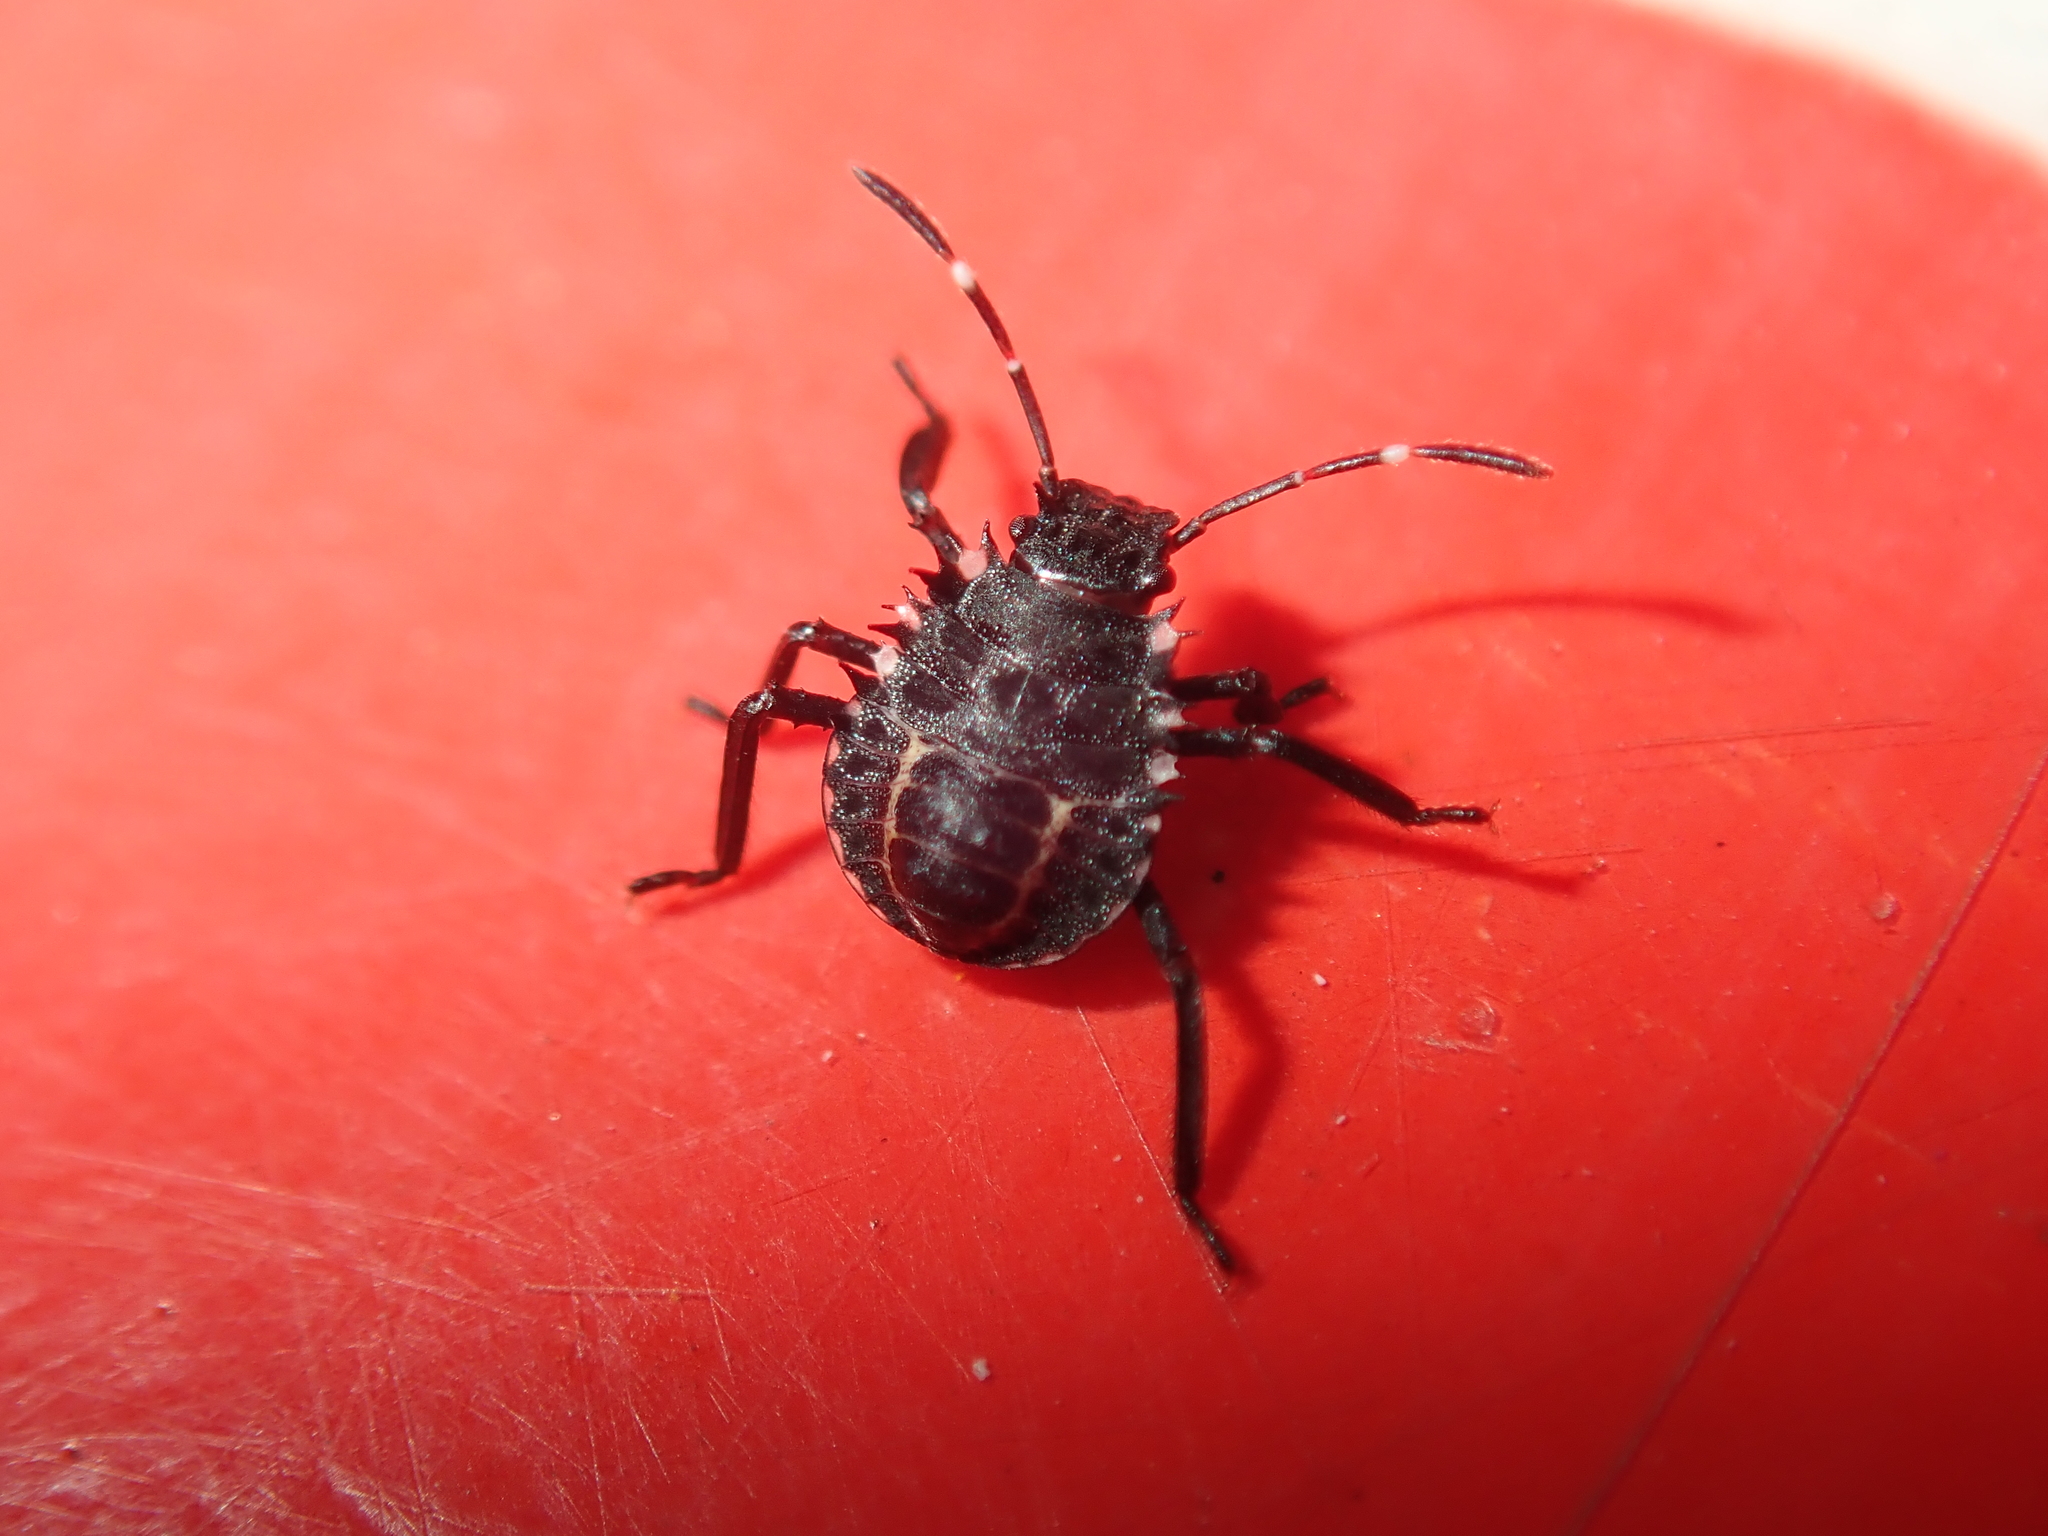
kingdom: Animalia
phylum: Arthropoda
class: Insecta
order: Hemiptera
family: Pentatomidae
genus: Halyomorpha
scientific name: Halyomorpha halys
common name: Brown marmorated stink bug
